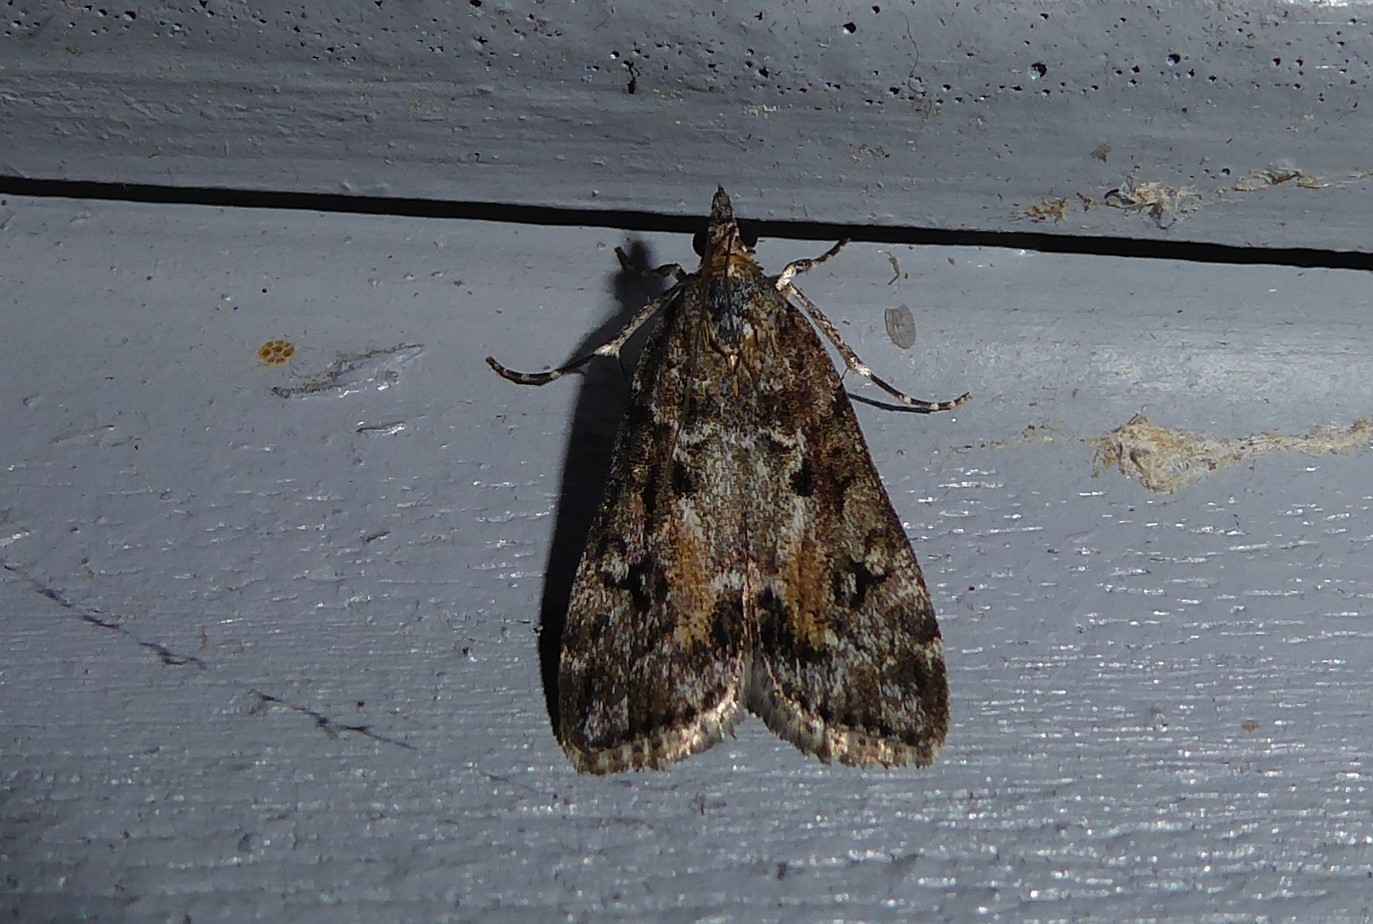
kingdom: Animalia
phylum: Arthropoda
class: Insecta
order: Lepidoptera
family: Crambidae
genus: Eudonia
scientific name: Eudonia submarginalis
